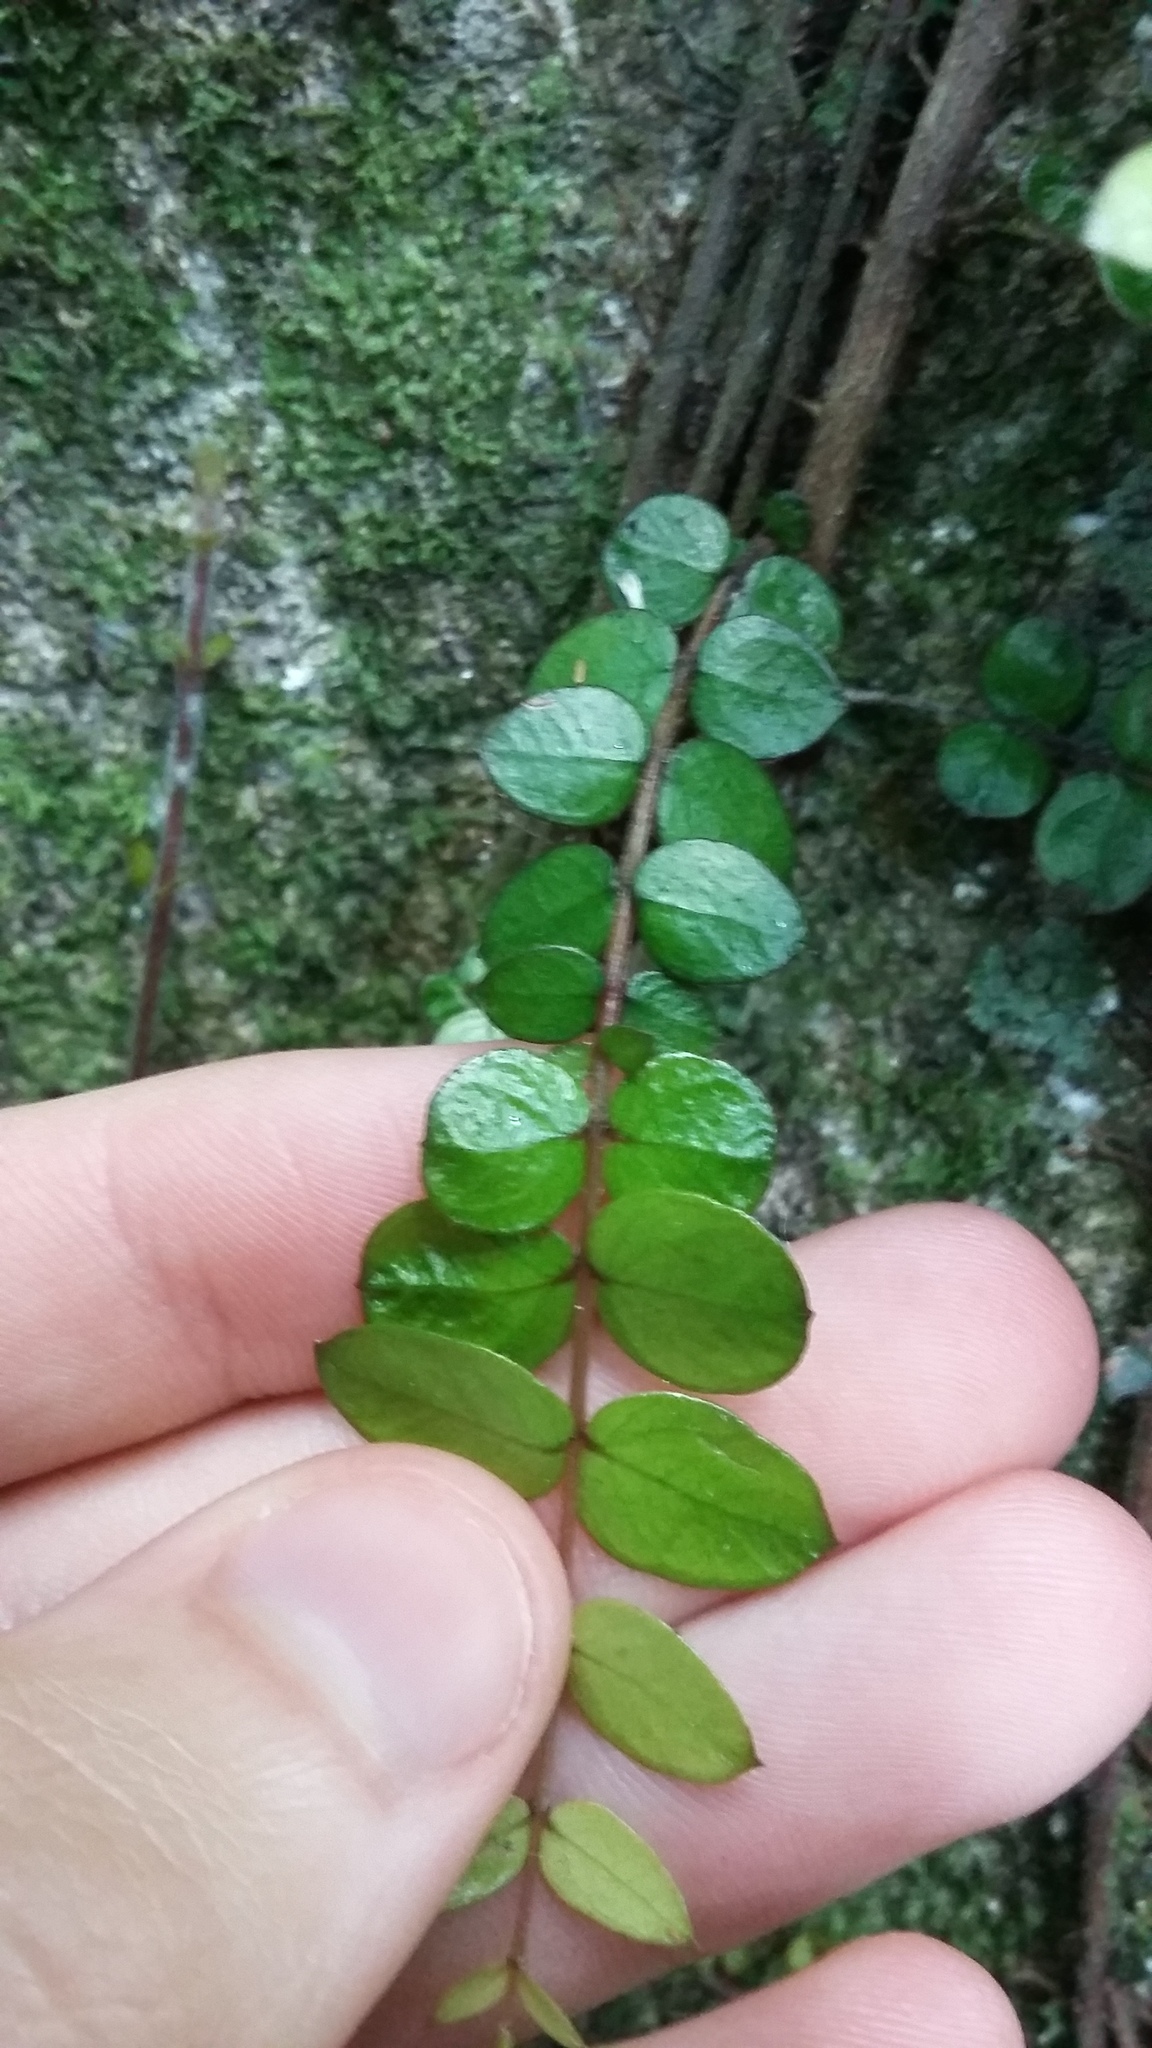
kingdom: Plantae
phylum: Tracheophyta
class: Magnoliopsida
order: Myrtales
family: Myrtaceae
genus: Metrosideros
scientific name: Metrosideros perforata
